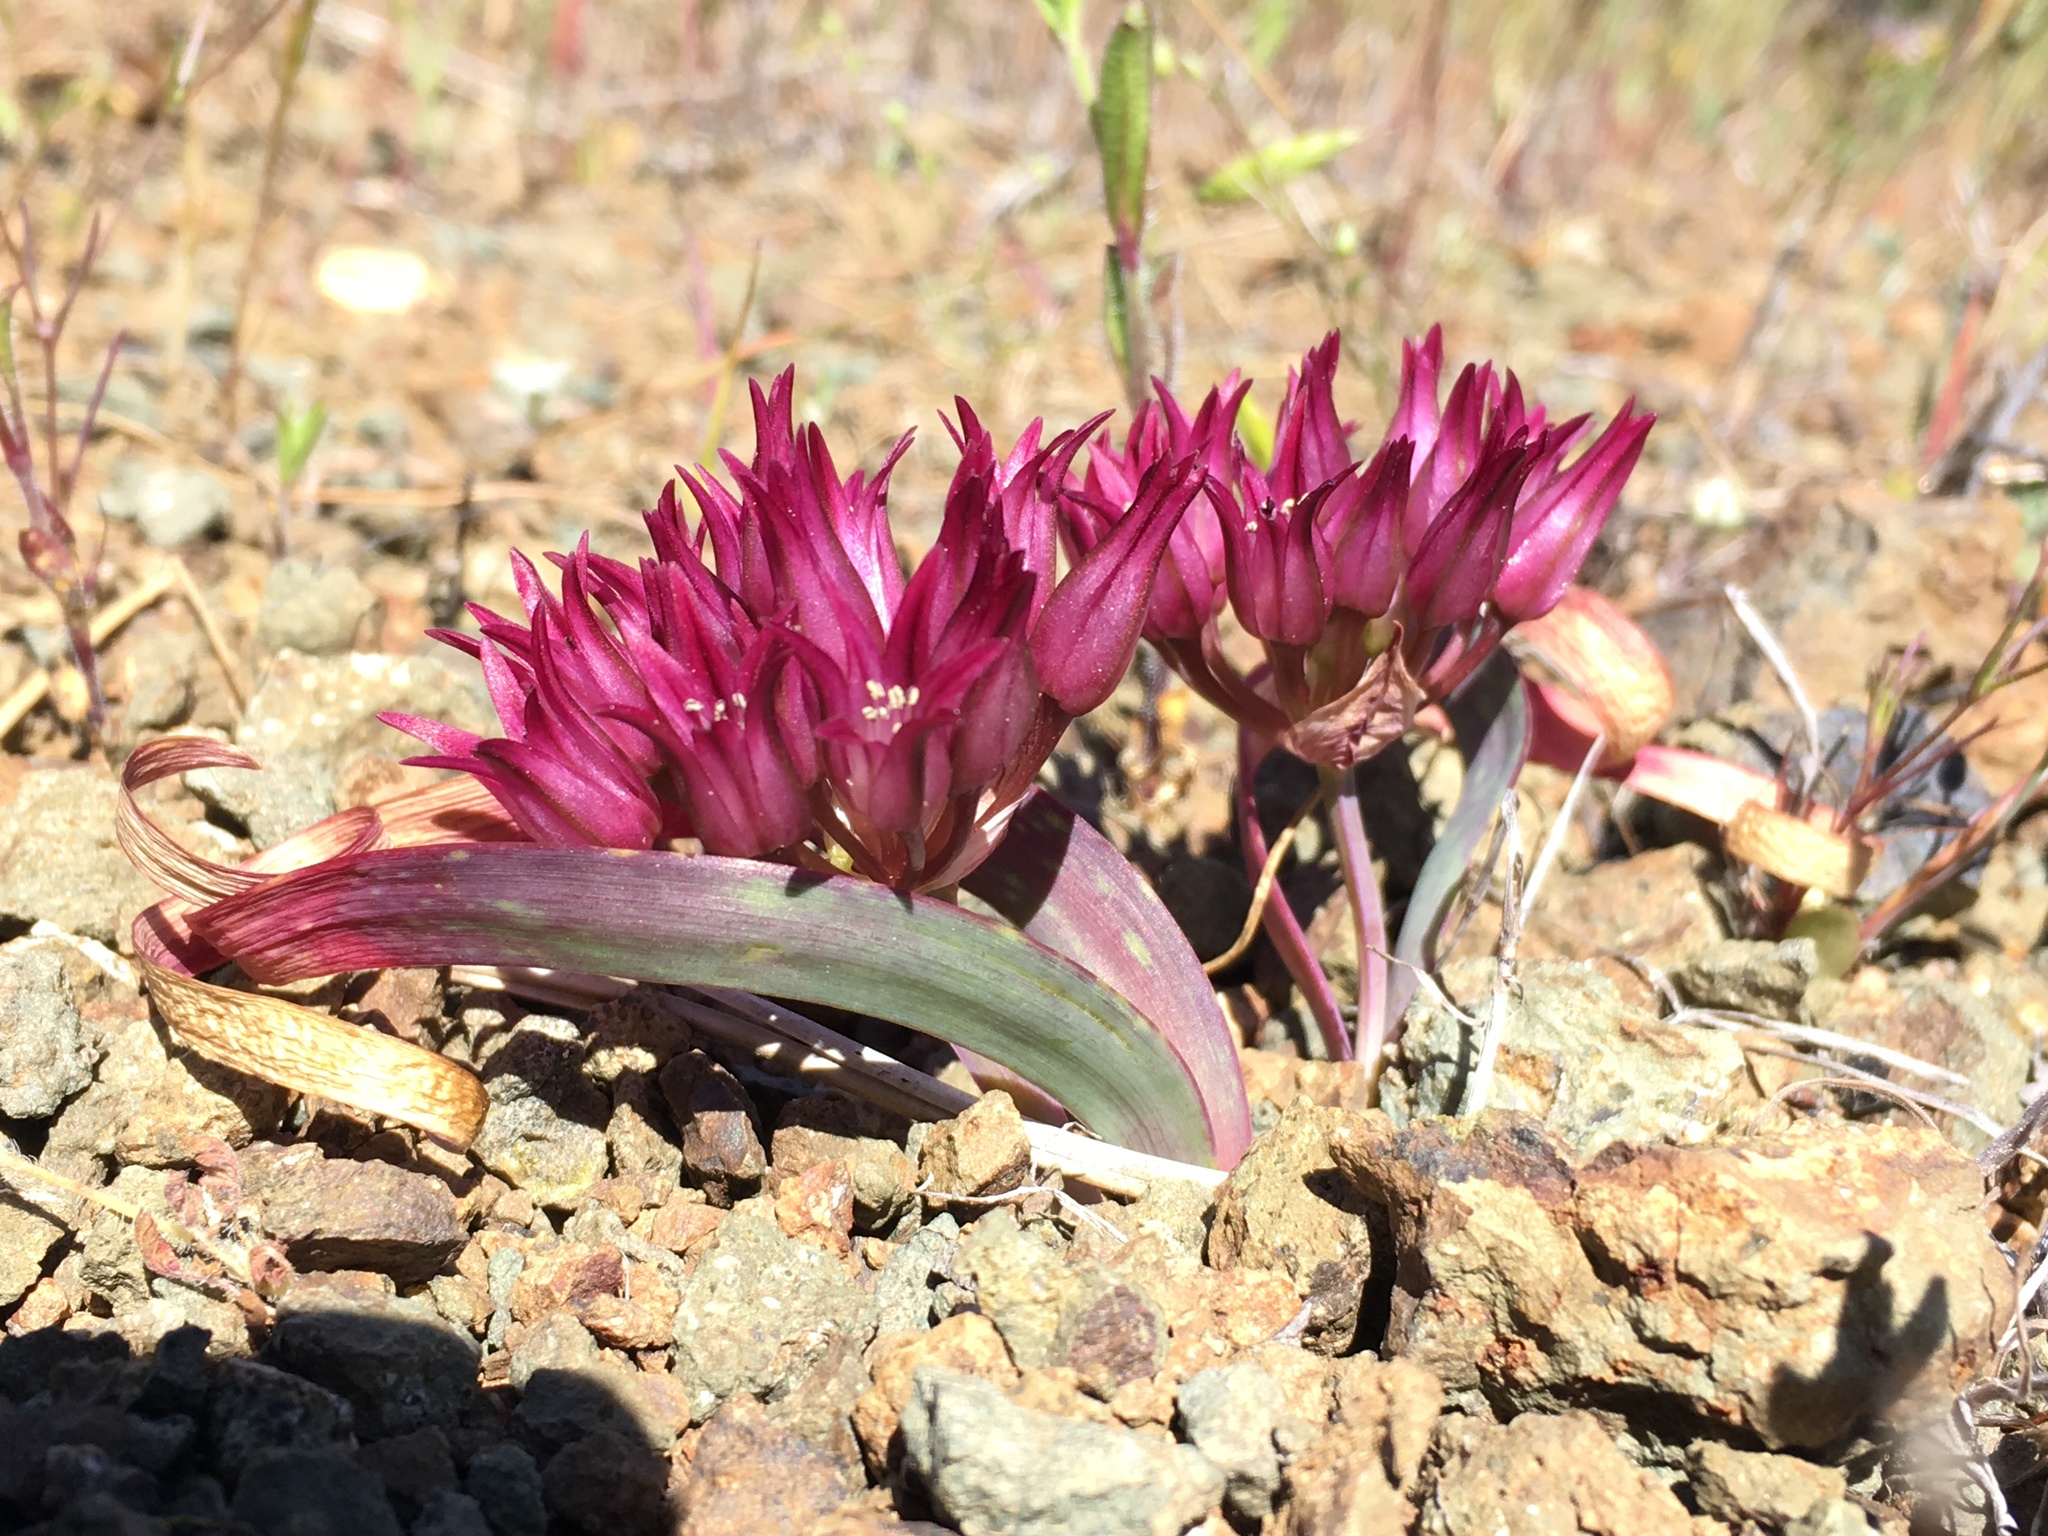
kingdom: Plantae
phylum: Tracheophyta
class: Liliopsida
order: Asparagales
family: Amaryllidaceae
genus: Allium
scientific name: Allium falcifolium
